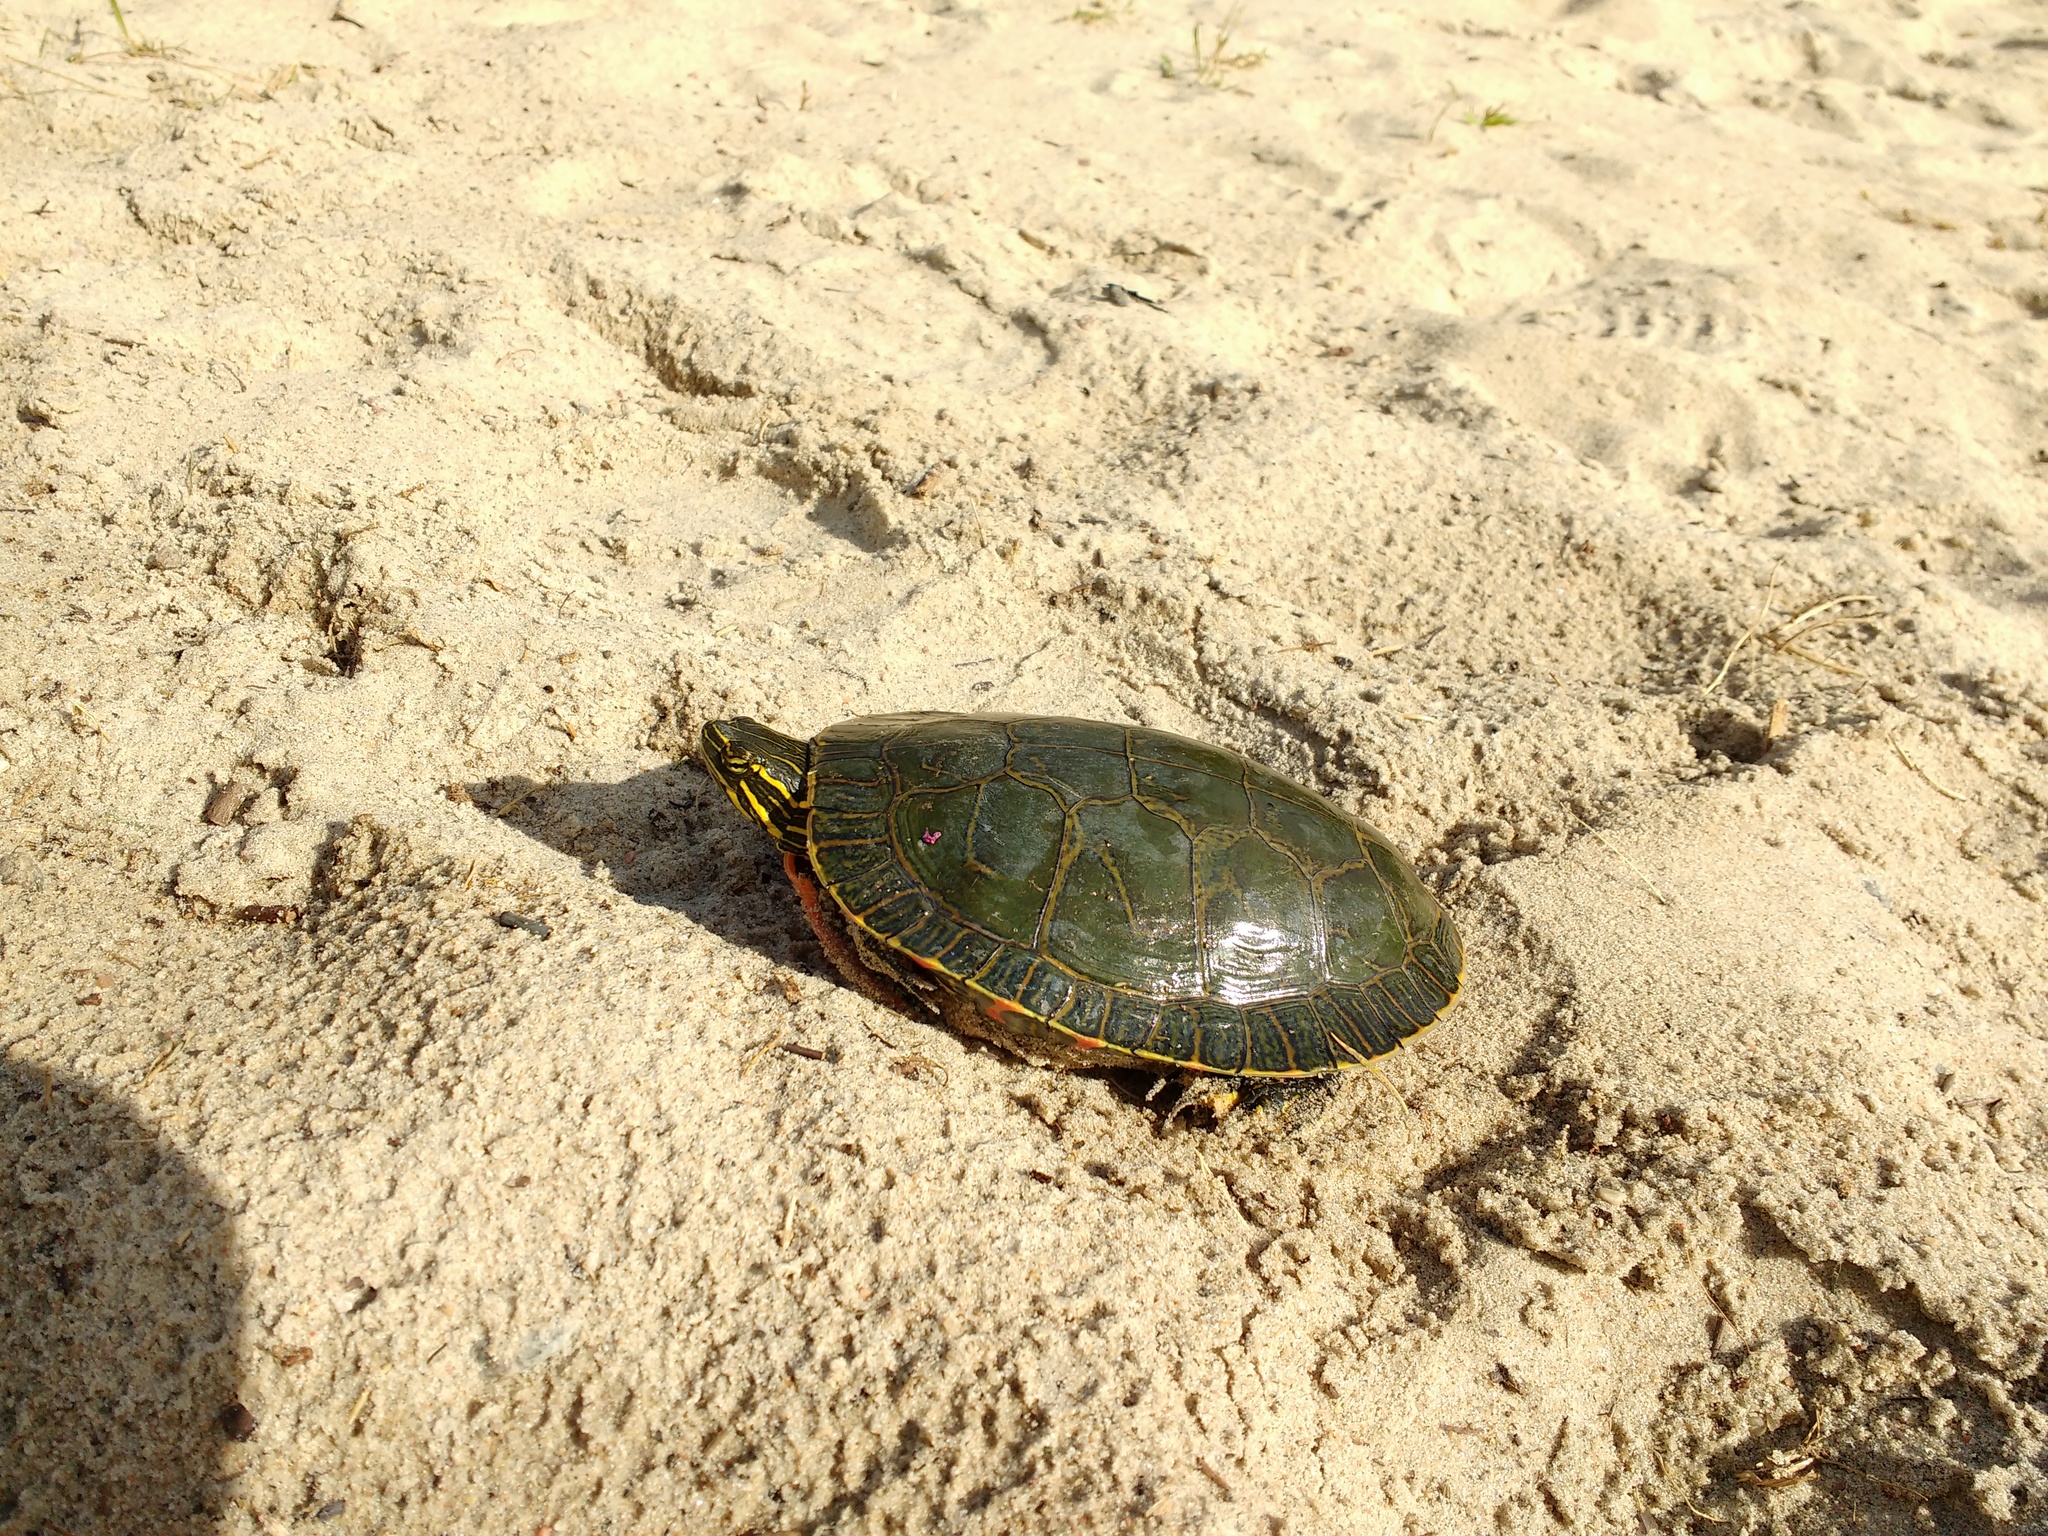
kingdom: Animalia
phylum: Chordata
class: Testudines
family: Emydidae
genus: Chrysemys
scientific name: Chrysemys picta
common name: Painted turtle
